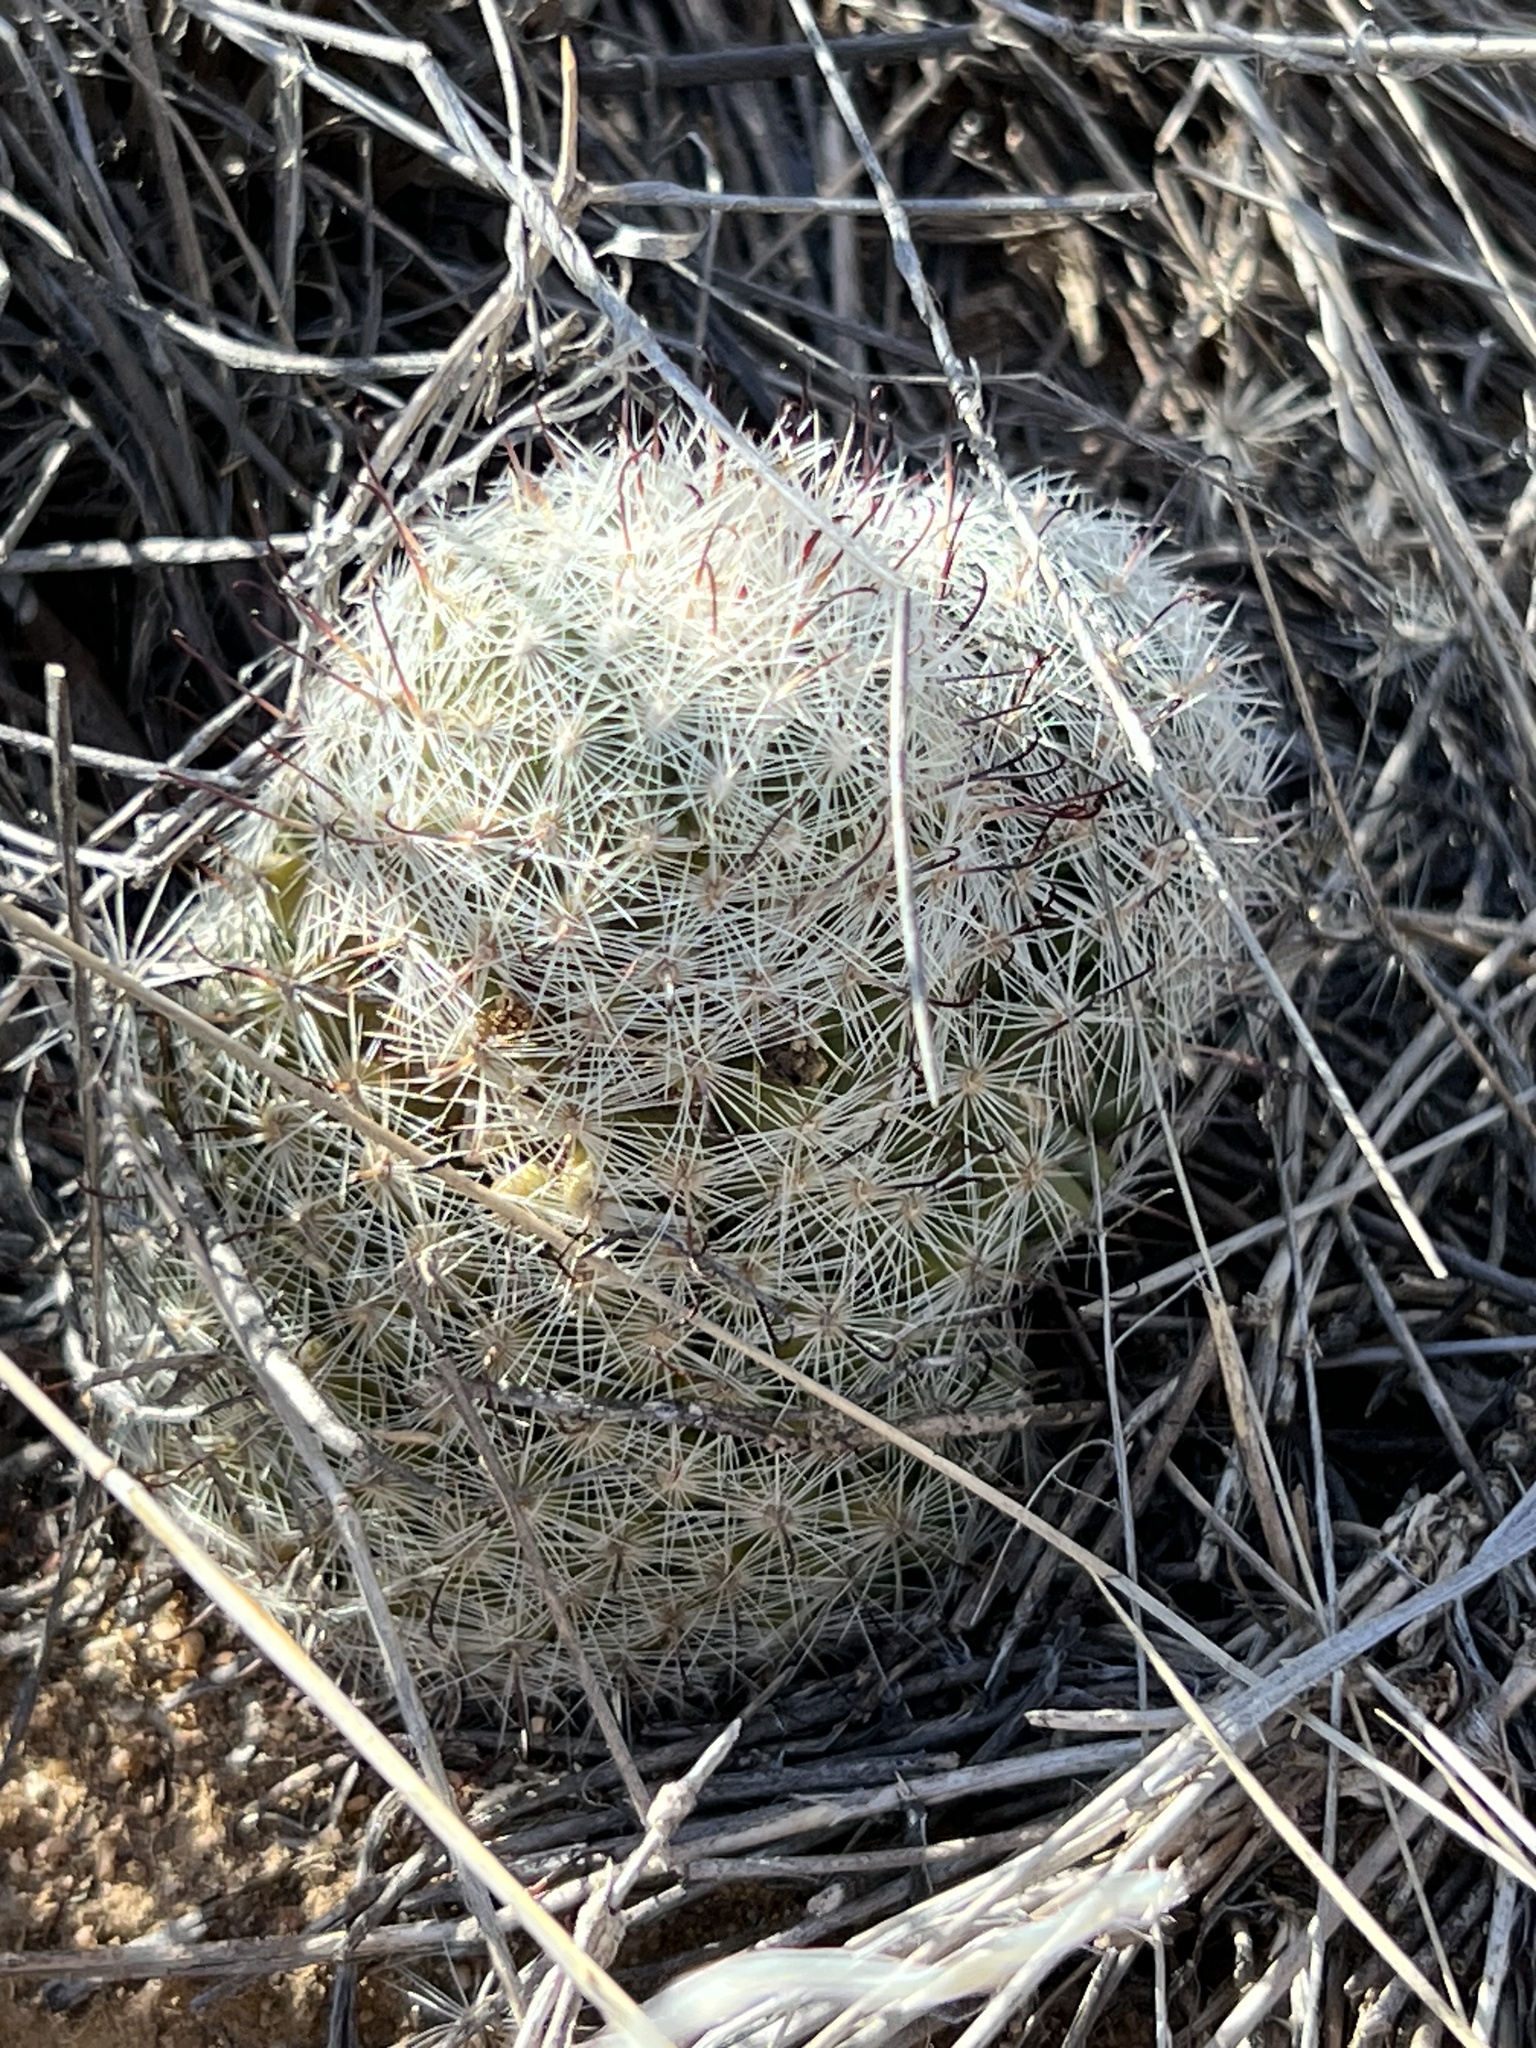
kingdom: Plantae
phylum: Tracheophyta
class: Magnoliopsida
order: Caryophyllales
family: Cactaceae
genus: Cochemiea
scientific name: Cochemiea grahamii
